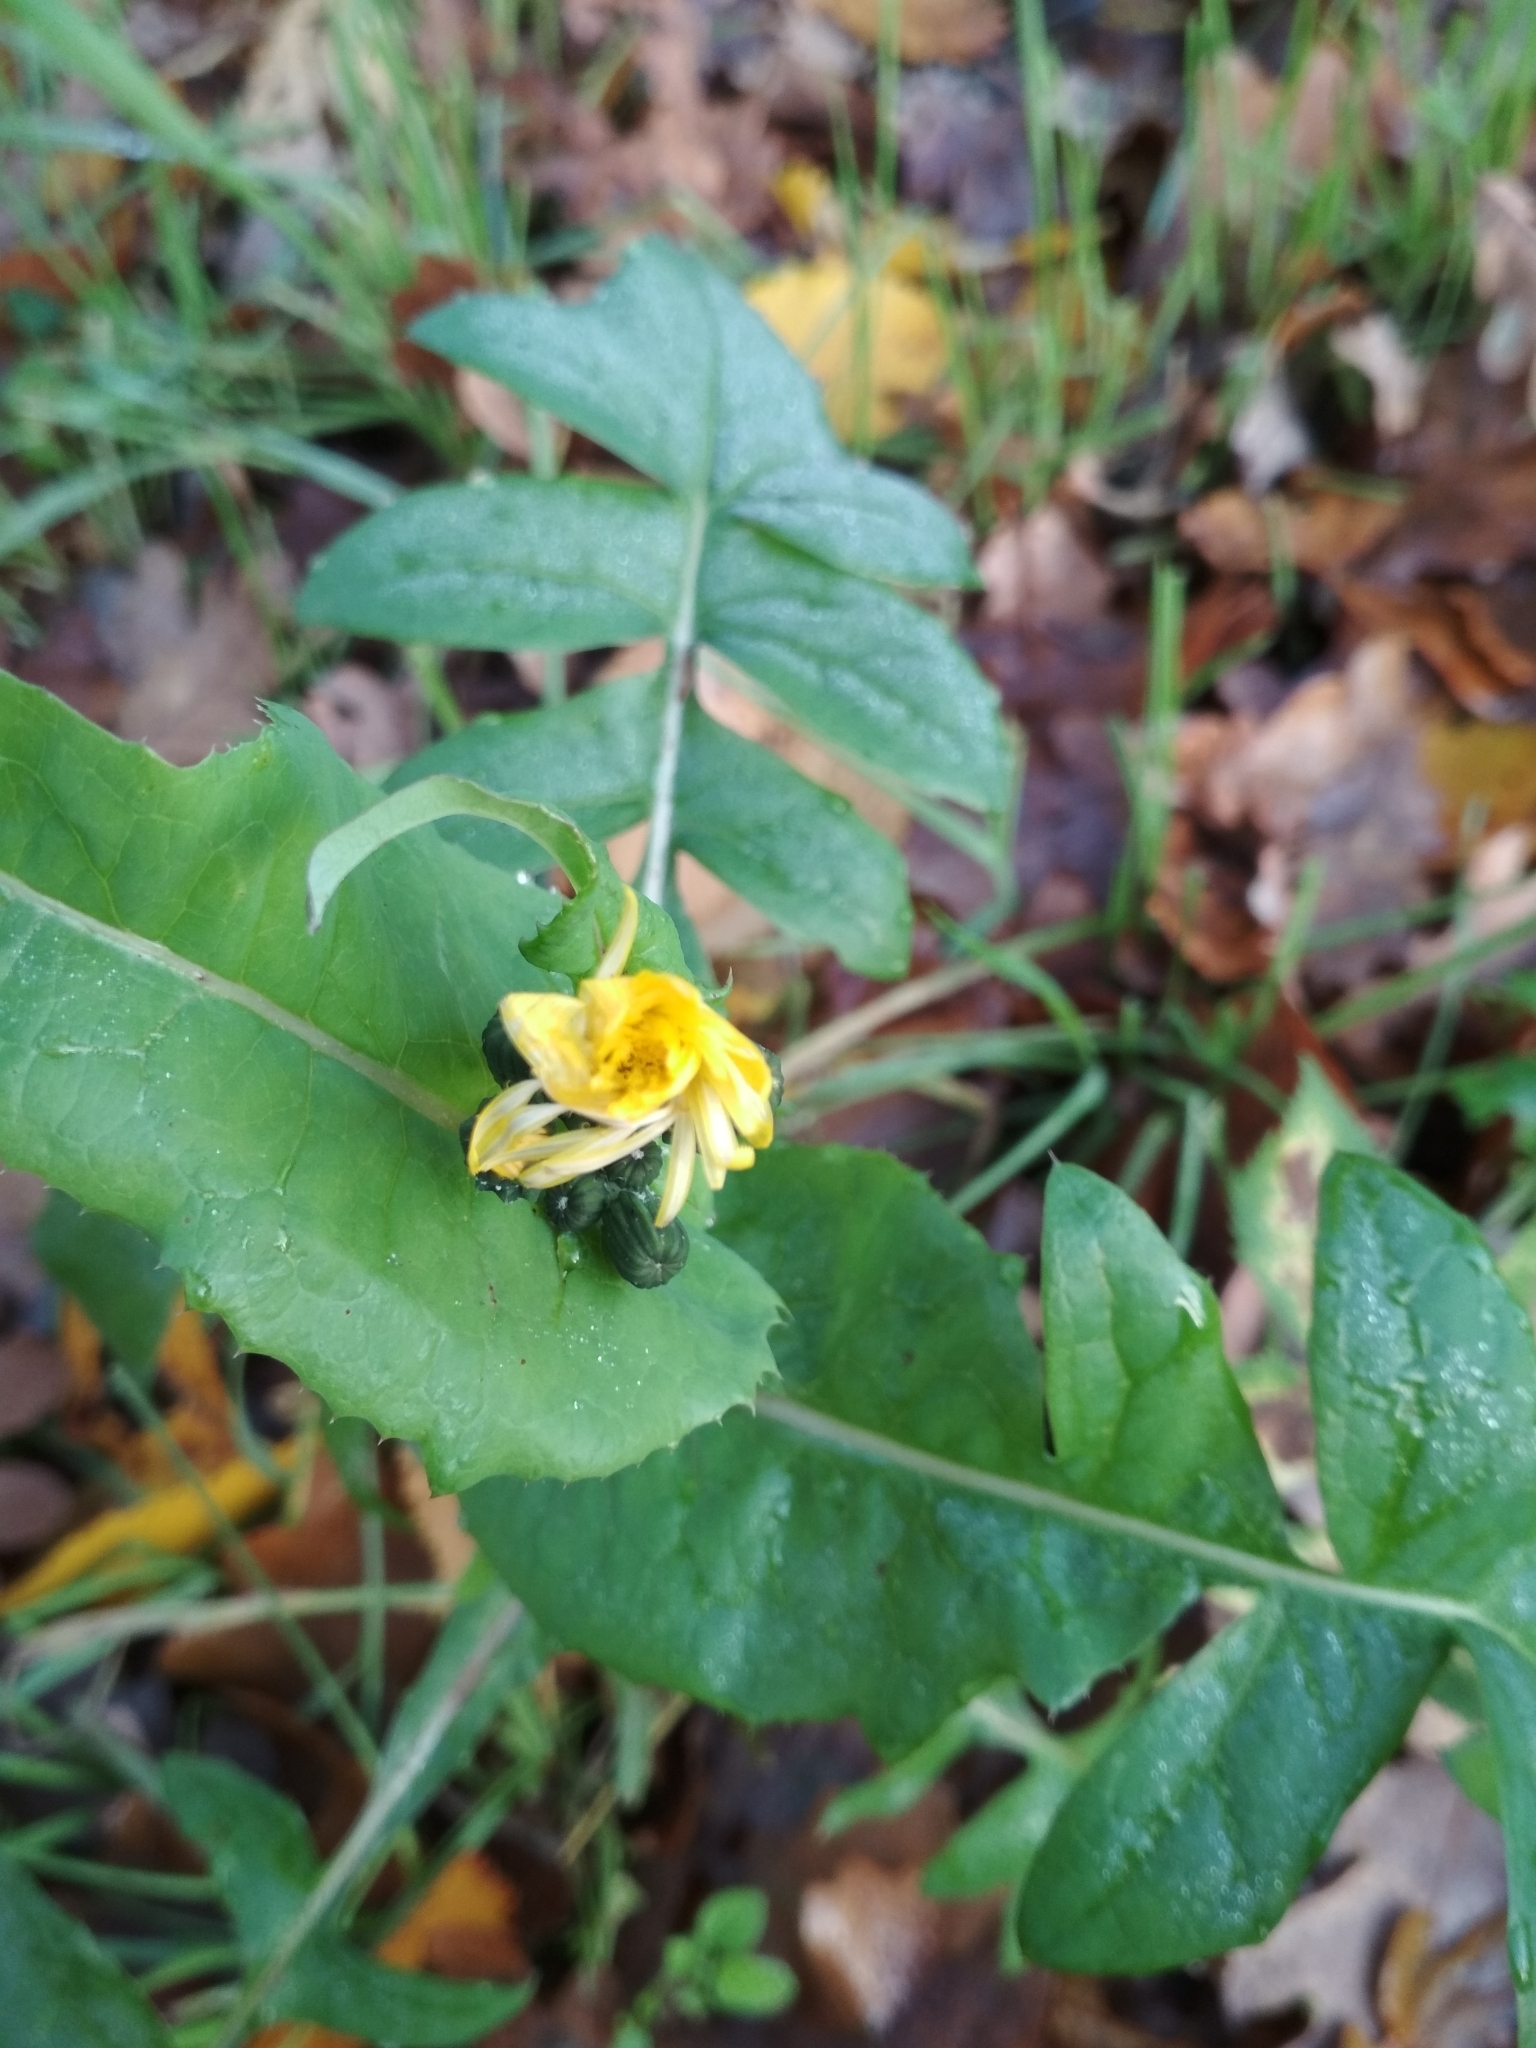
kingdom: Plantae
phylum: Tracheophyta
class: Magnoliopsida
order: Asterales
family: Asteraceae
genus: Sonchus
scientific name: Sonchus oleraceus
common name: Common sowthistle
